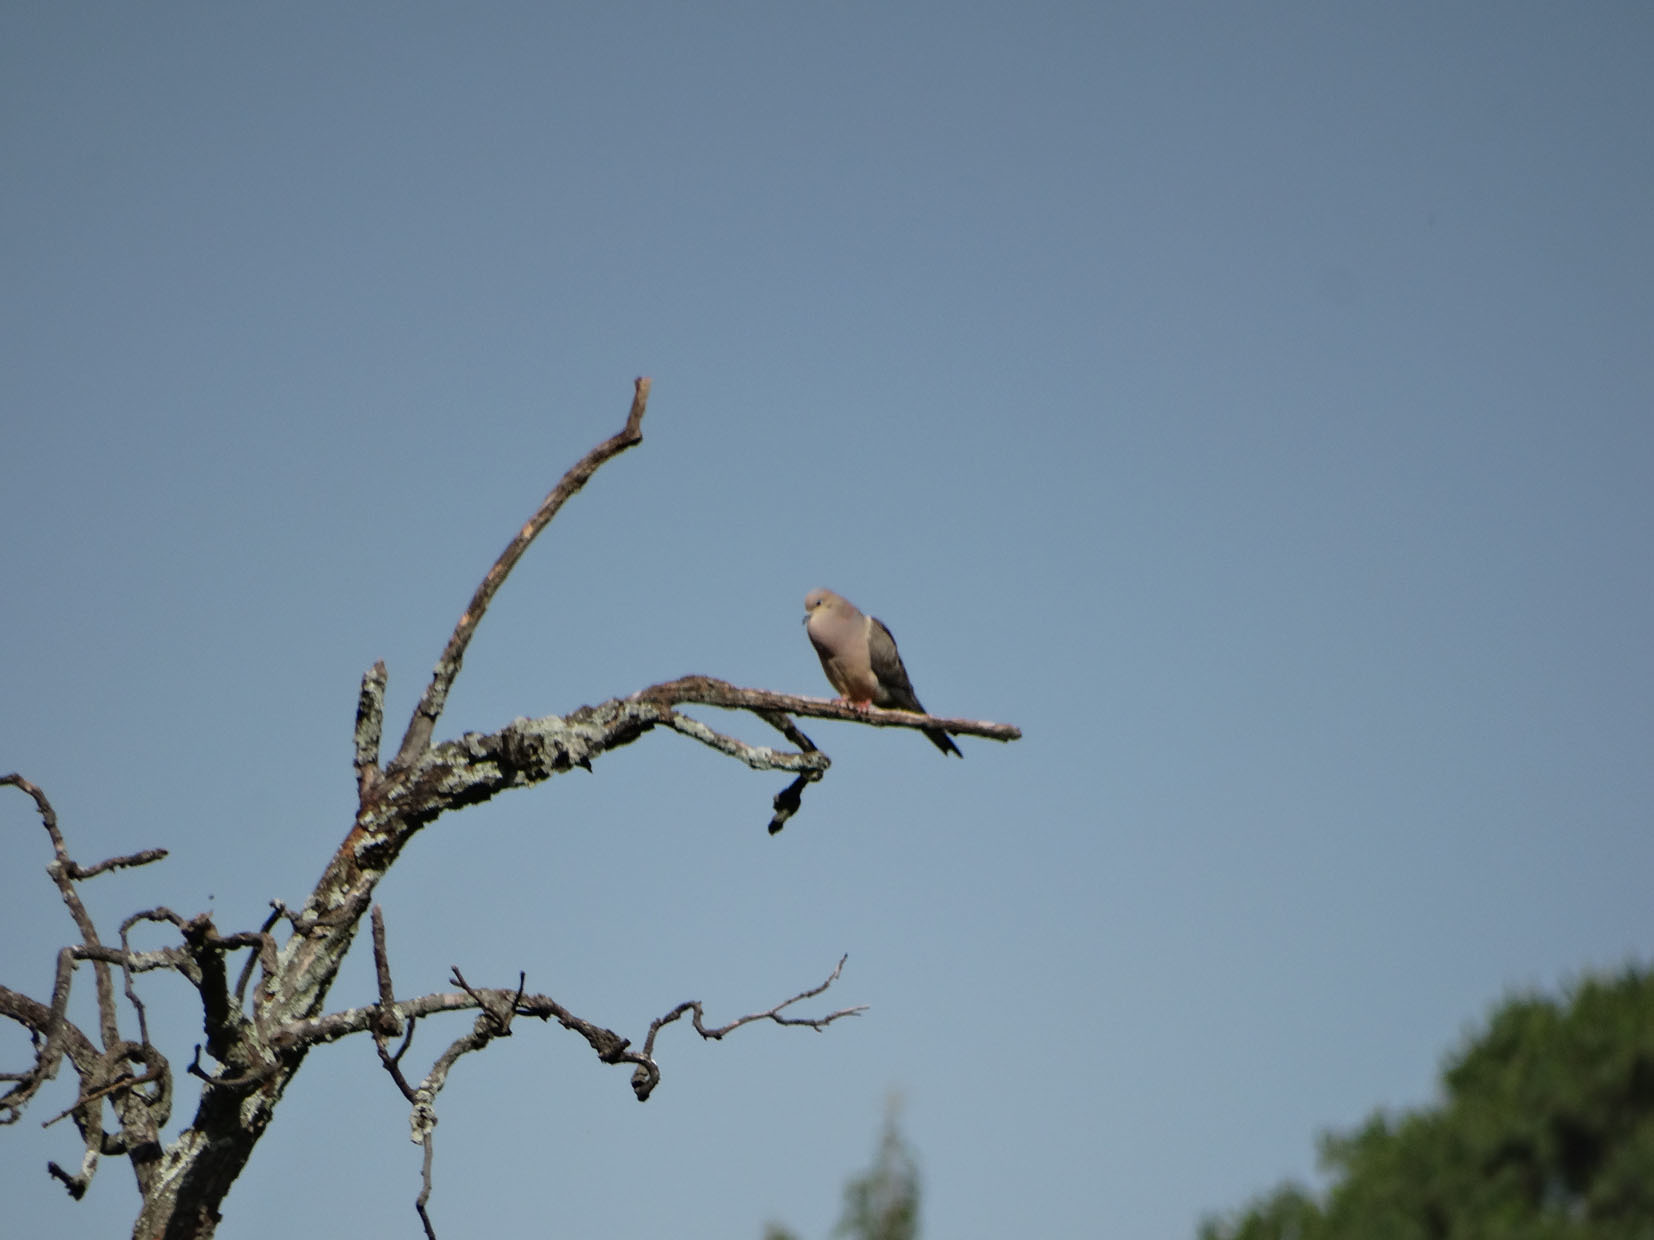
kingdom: Animalia
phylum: Chordata
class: Aves
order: Columbiformes
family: Columbidae
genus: Zenaida
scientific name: Zenaida macroura
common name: Mourning dove
